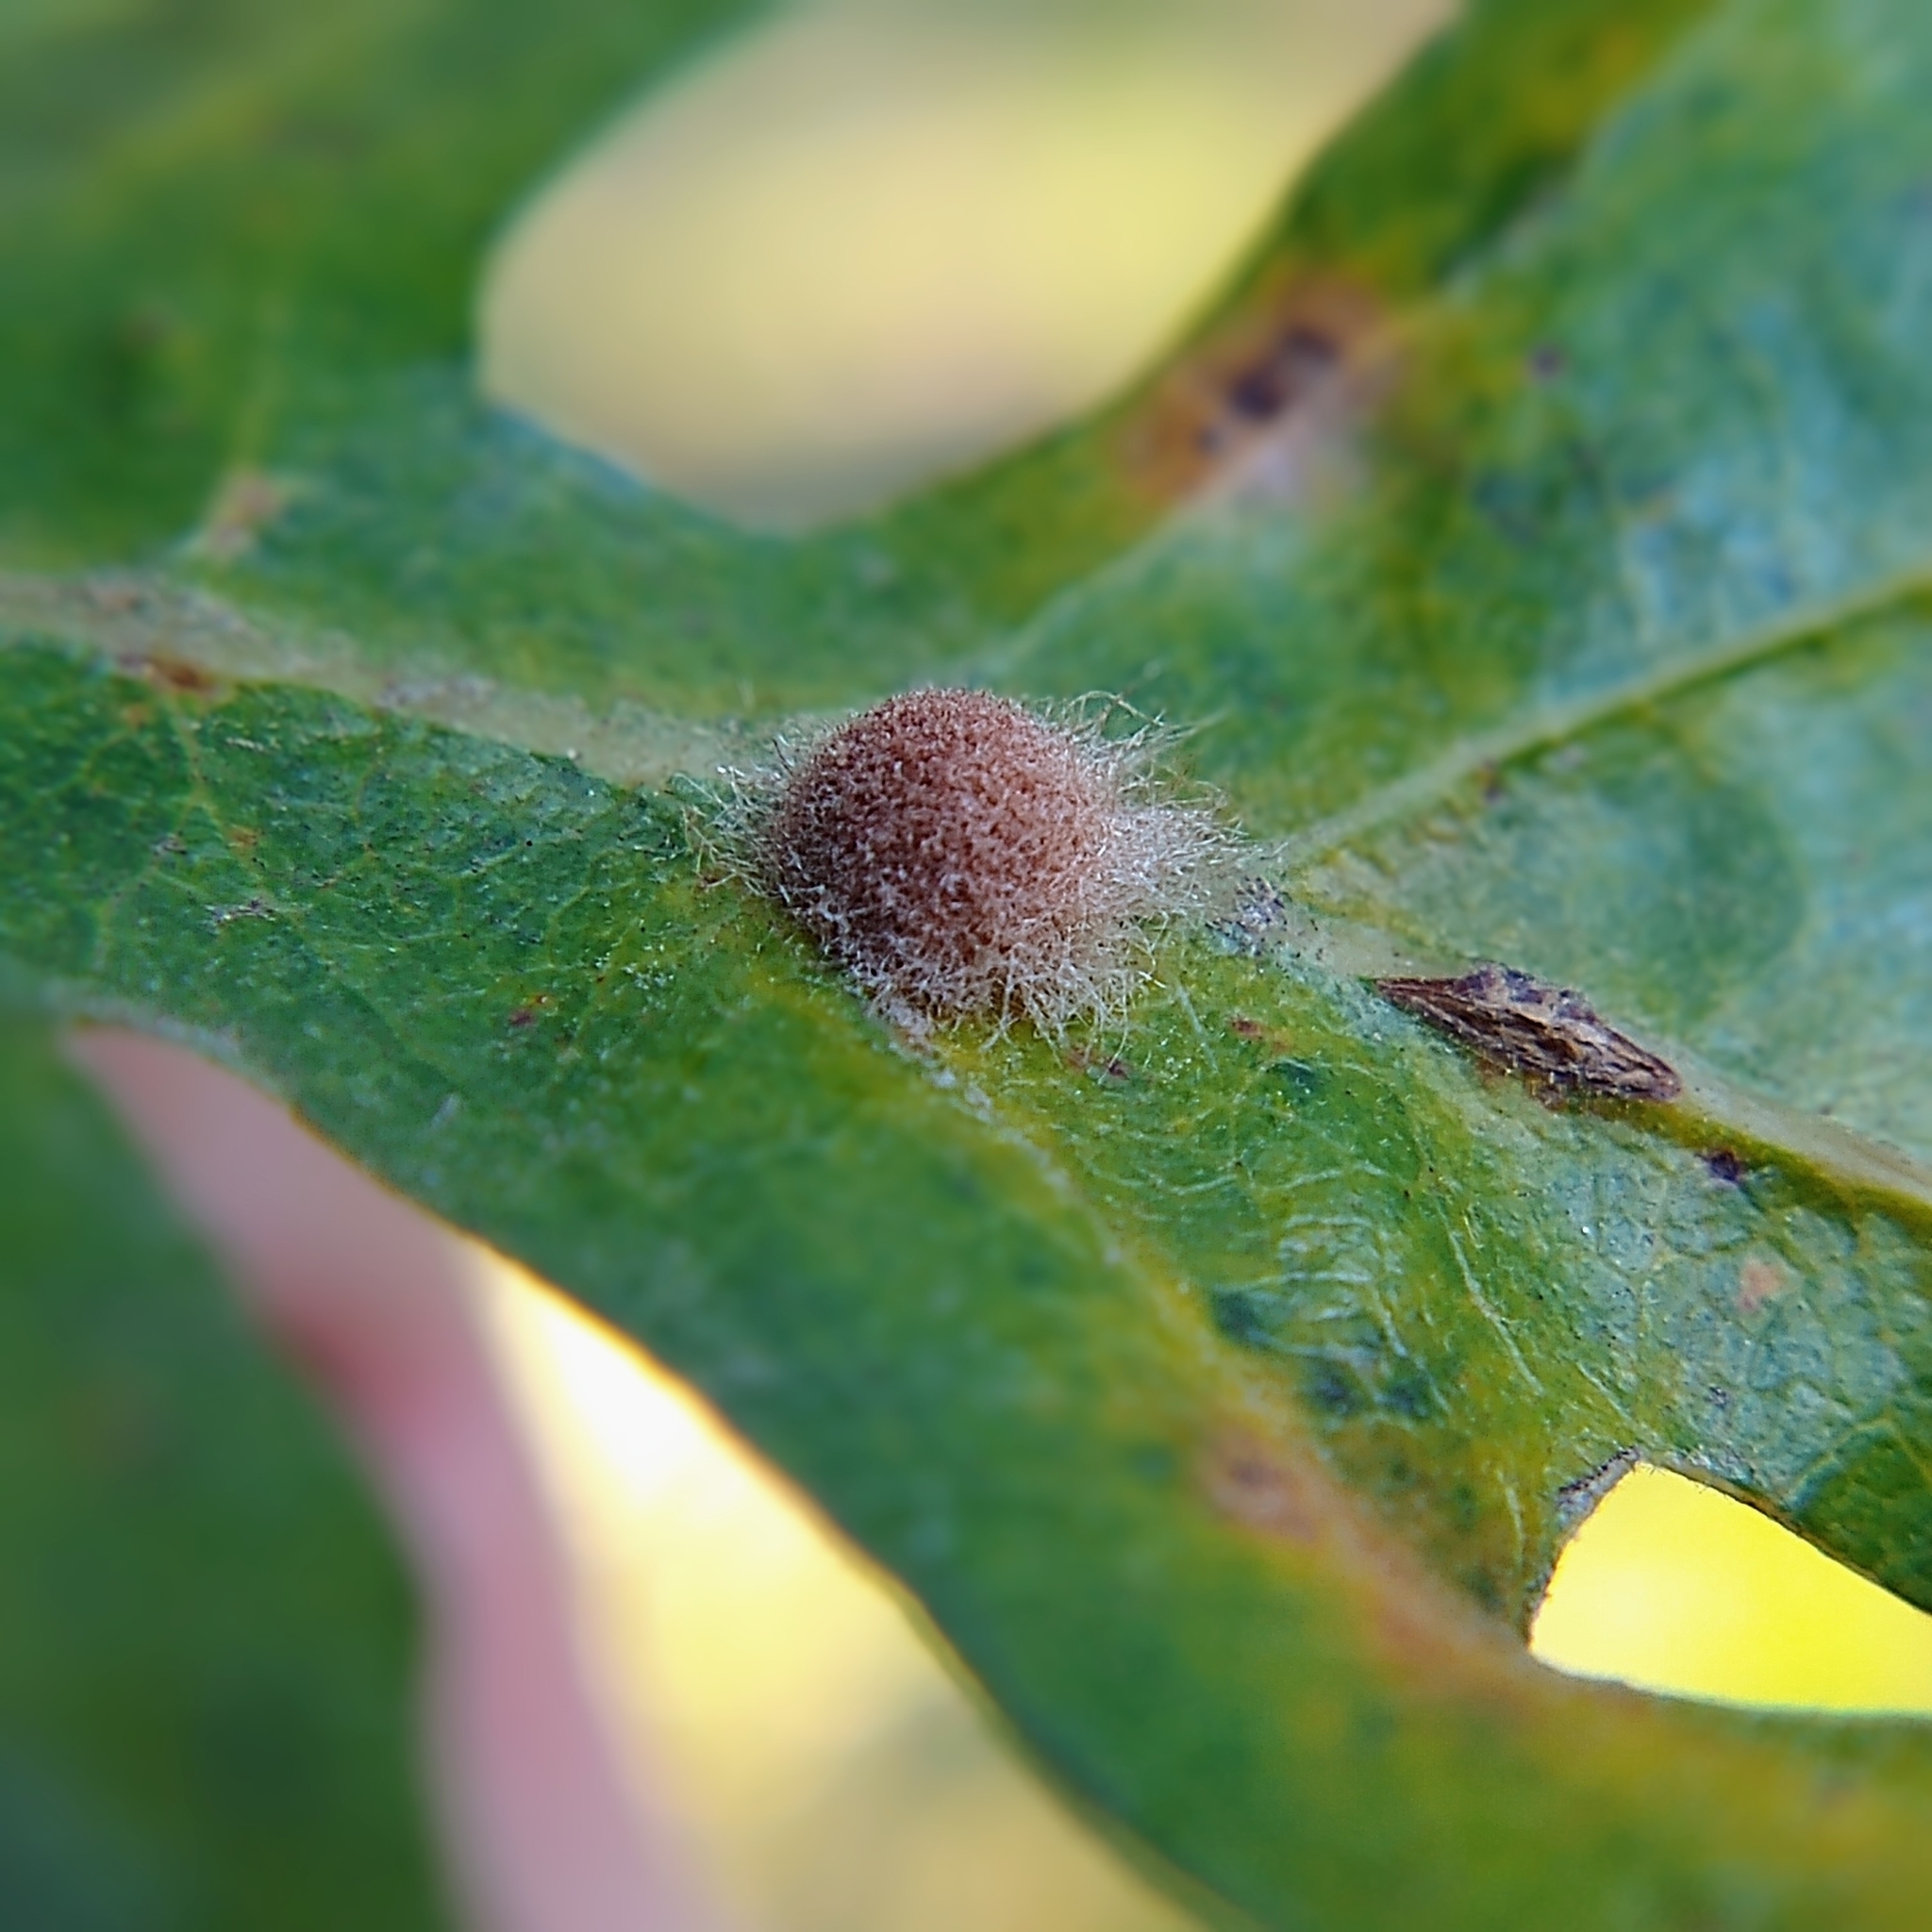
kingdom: Animalia
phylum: Arthropoda
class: Insecta
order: Hymenoptera
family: Cynipidae
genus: Andricus
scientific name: Andricus Druon fullawayi
